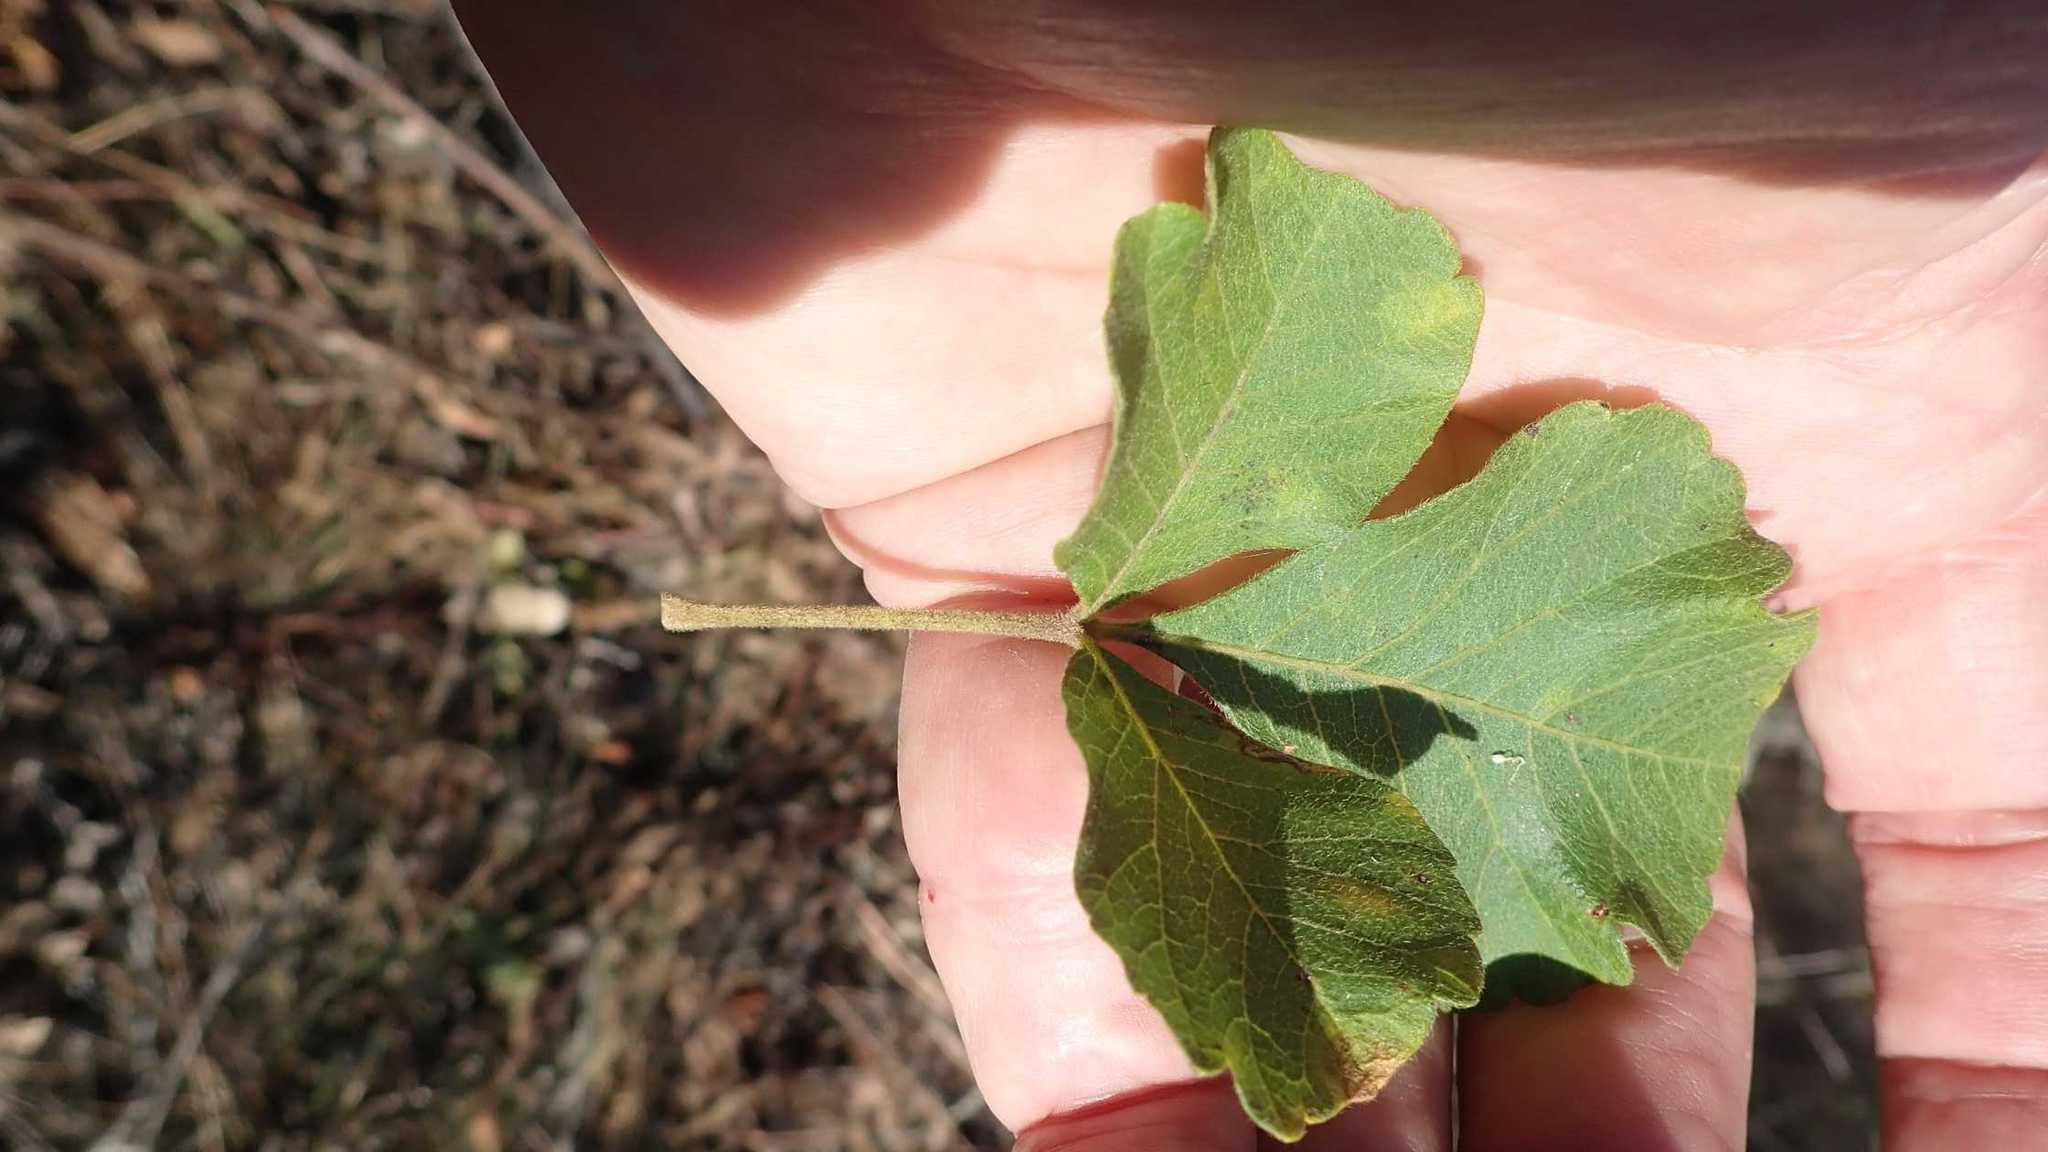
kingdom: Plantae
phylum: Tracheophyta
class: Magnoliopsida
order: Sapindales
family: Anacardiaceae
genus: Searsia
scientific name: Searsia rehmanniana
